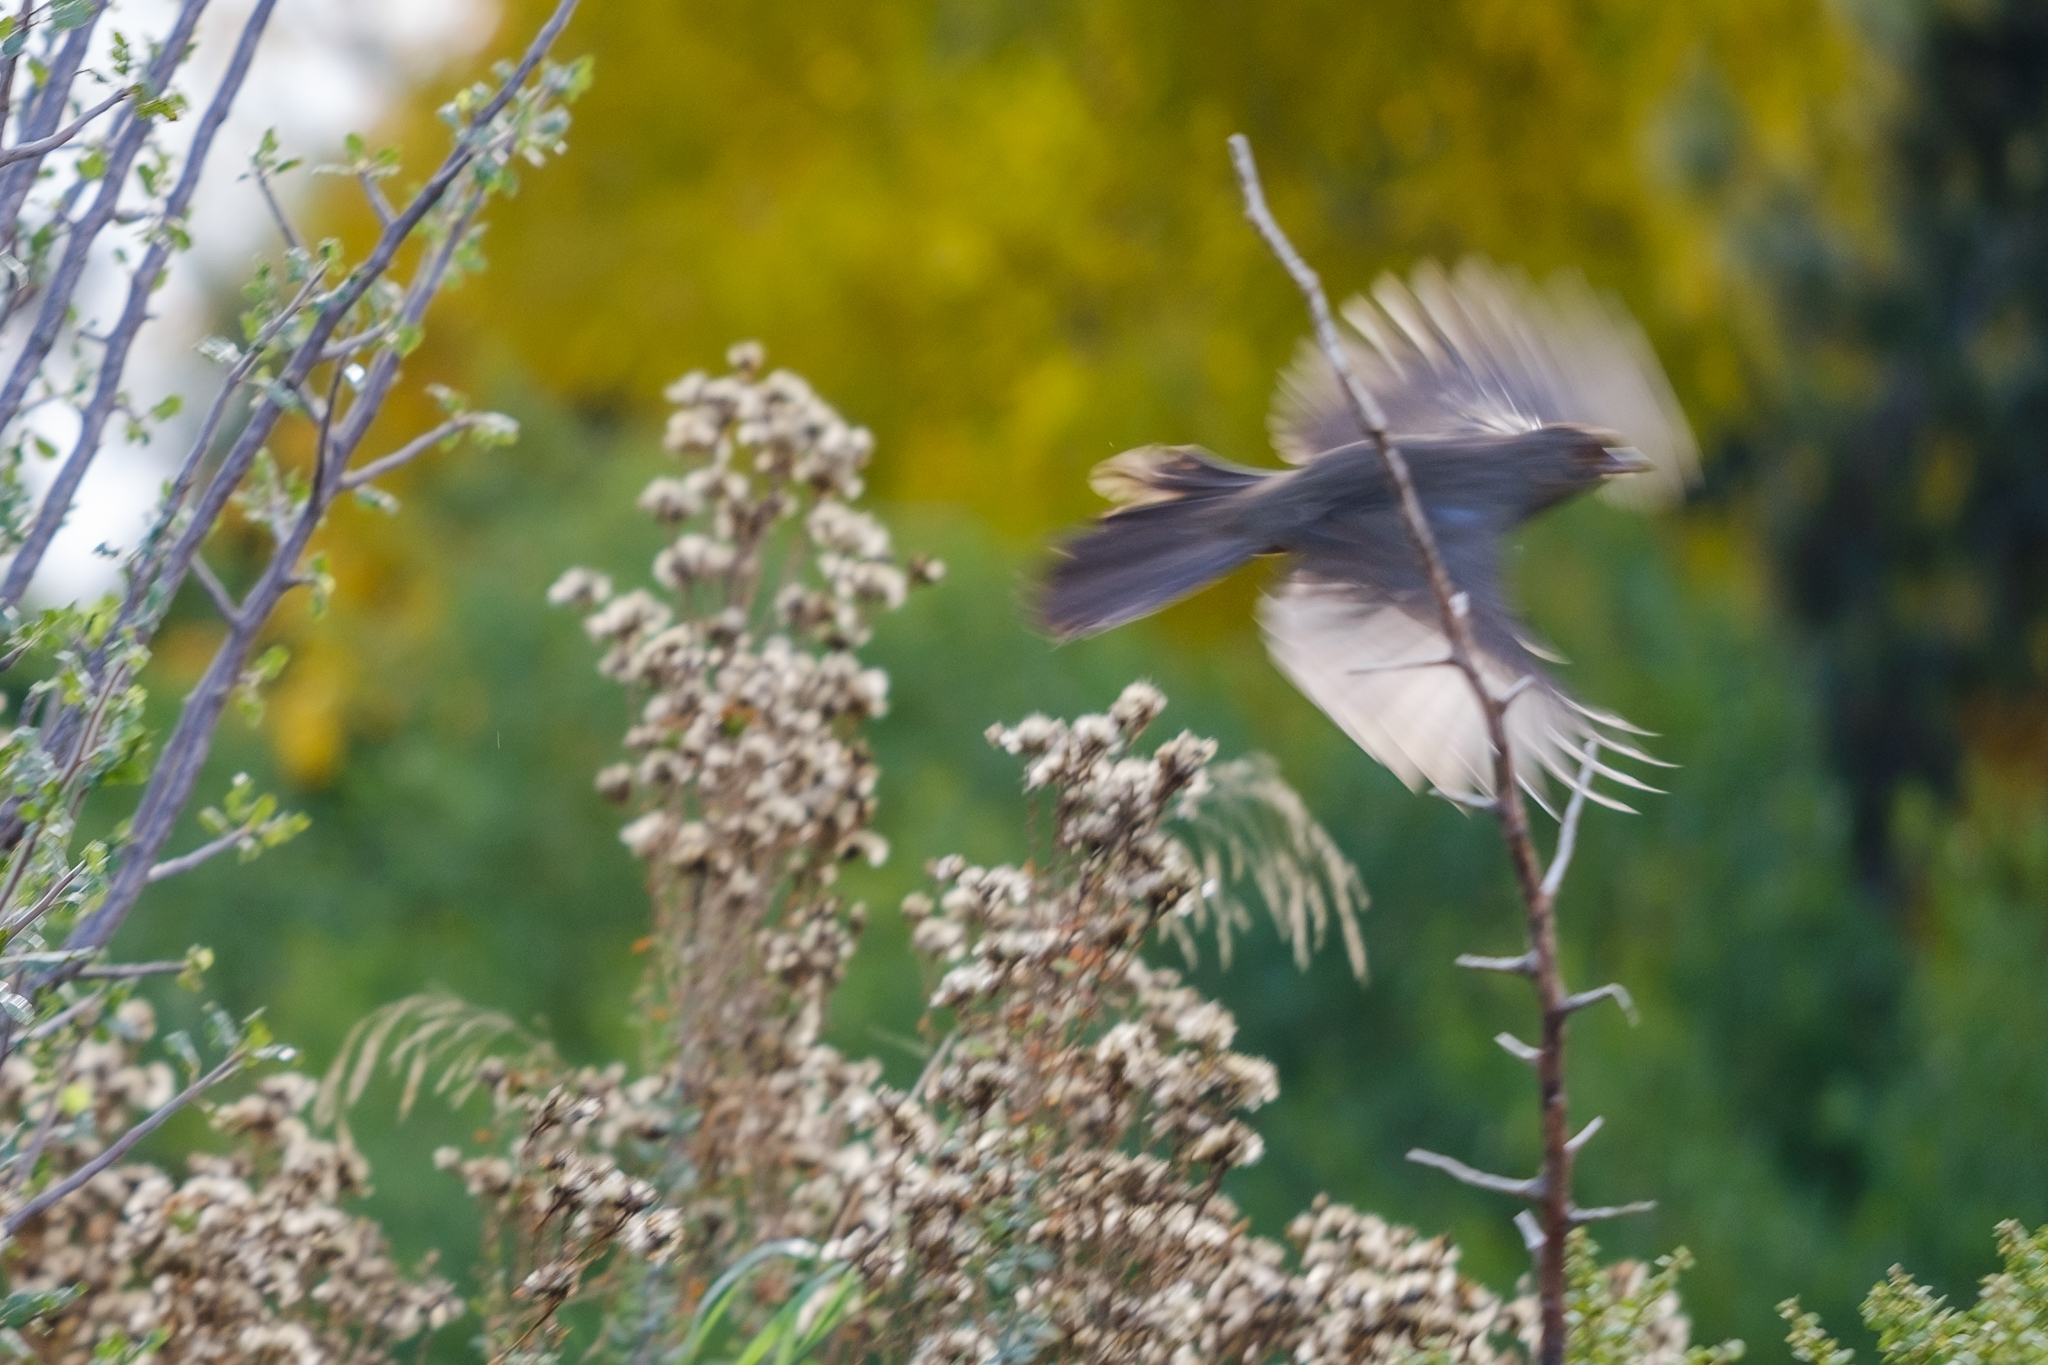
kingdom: Animalia
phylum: Chordata
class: Aves
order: Passeriformes
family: Passerellidae
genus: Melozone
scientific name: Melozone crissalis
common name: California towhee
